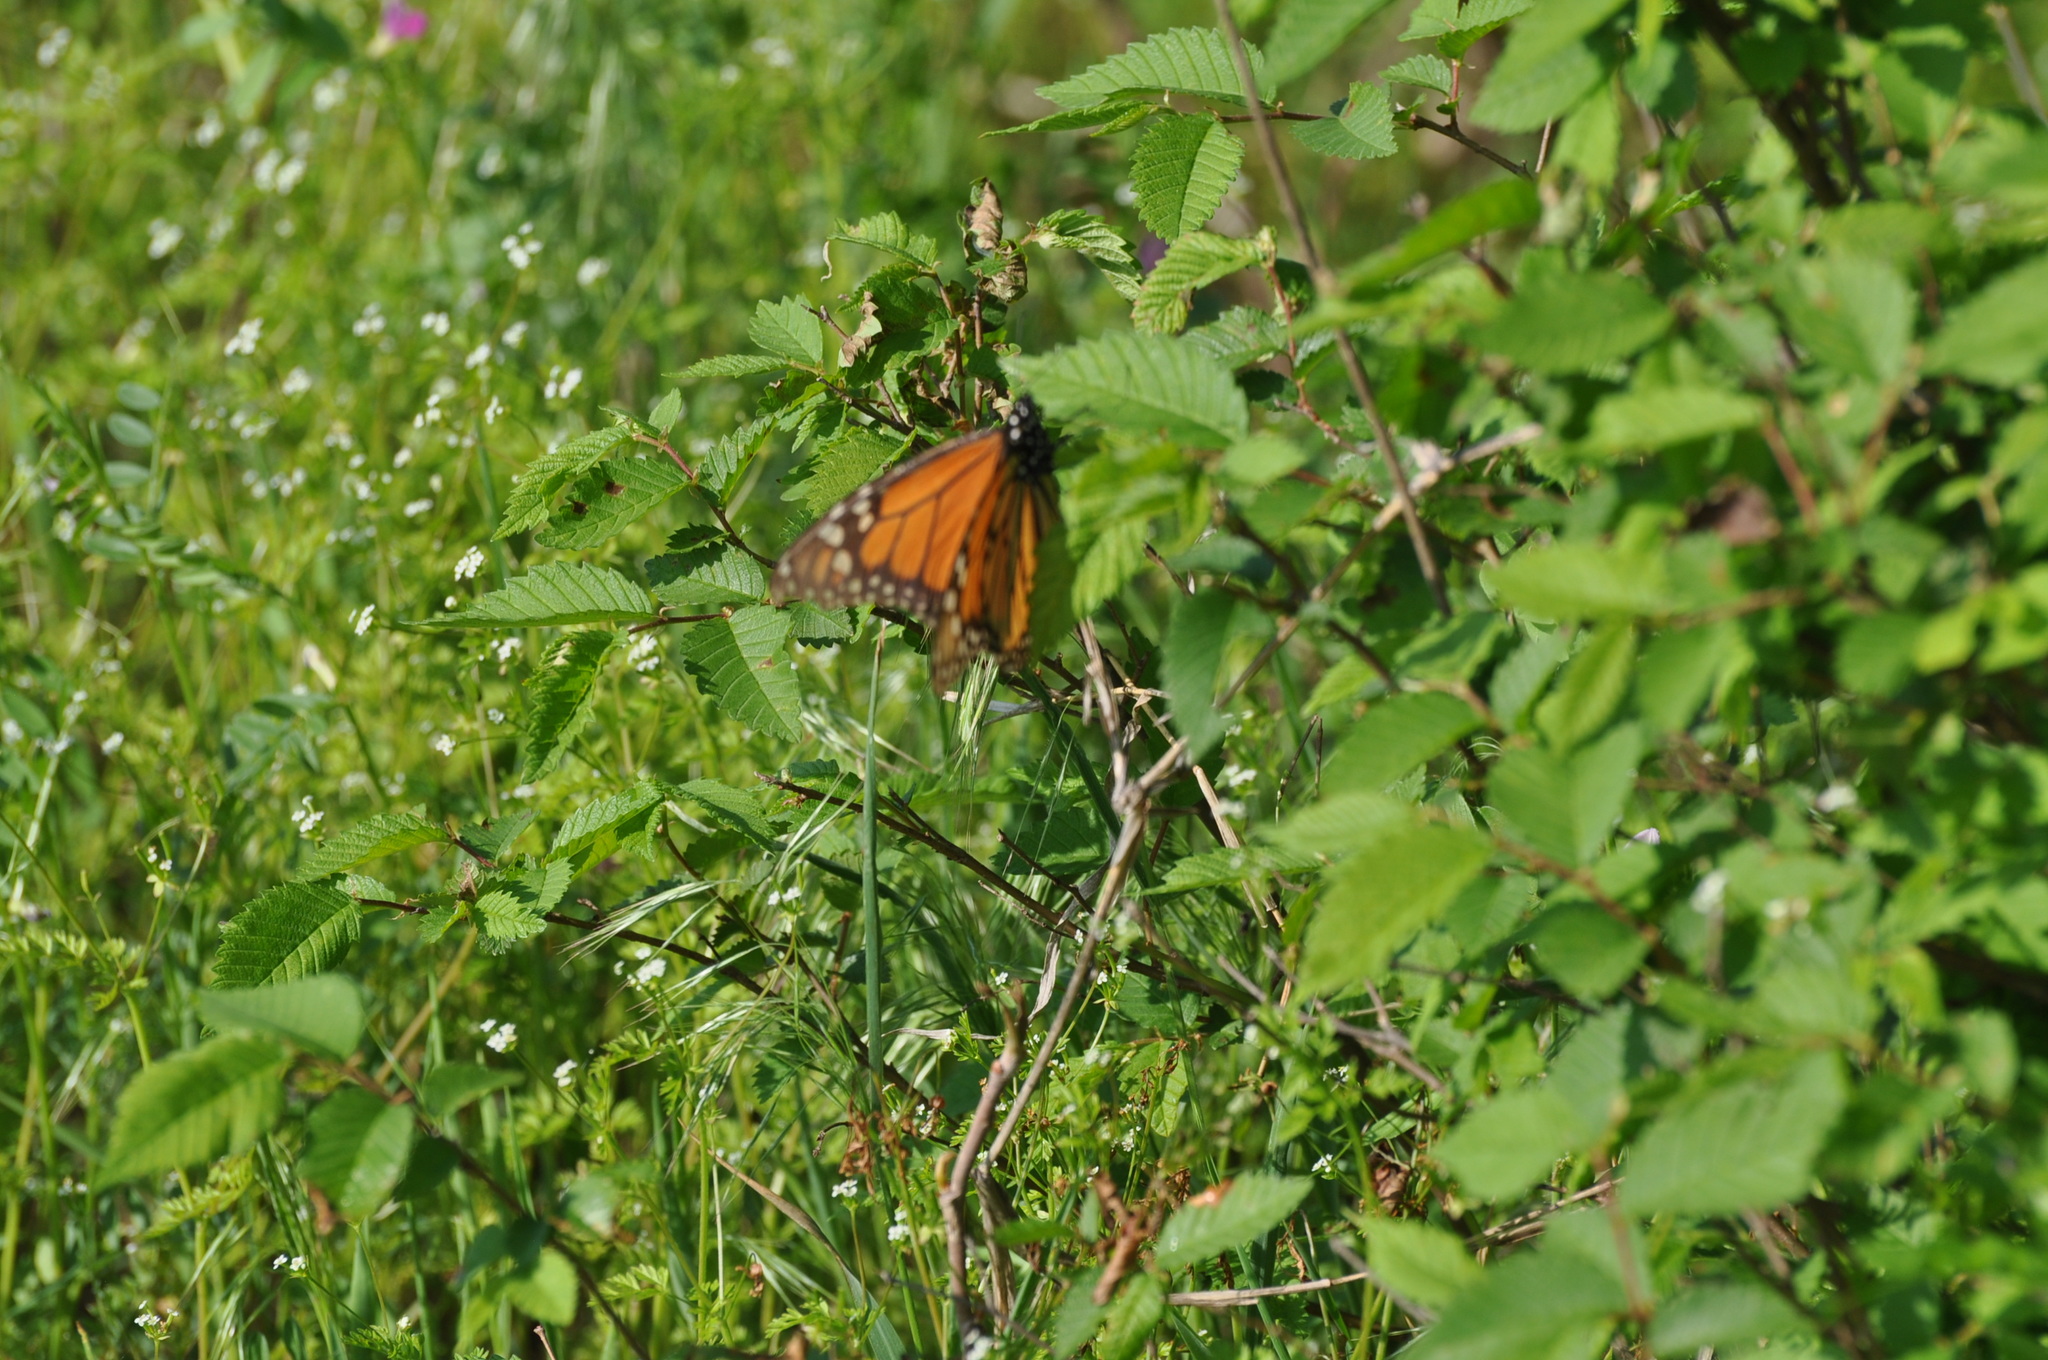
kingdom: Animalia
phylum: Arthropoda
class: Insecta
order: Lepidoptera
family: Nymphalidae
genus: Danaus
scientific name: Danaus plexippus
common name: Monarch
